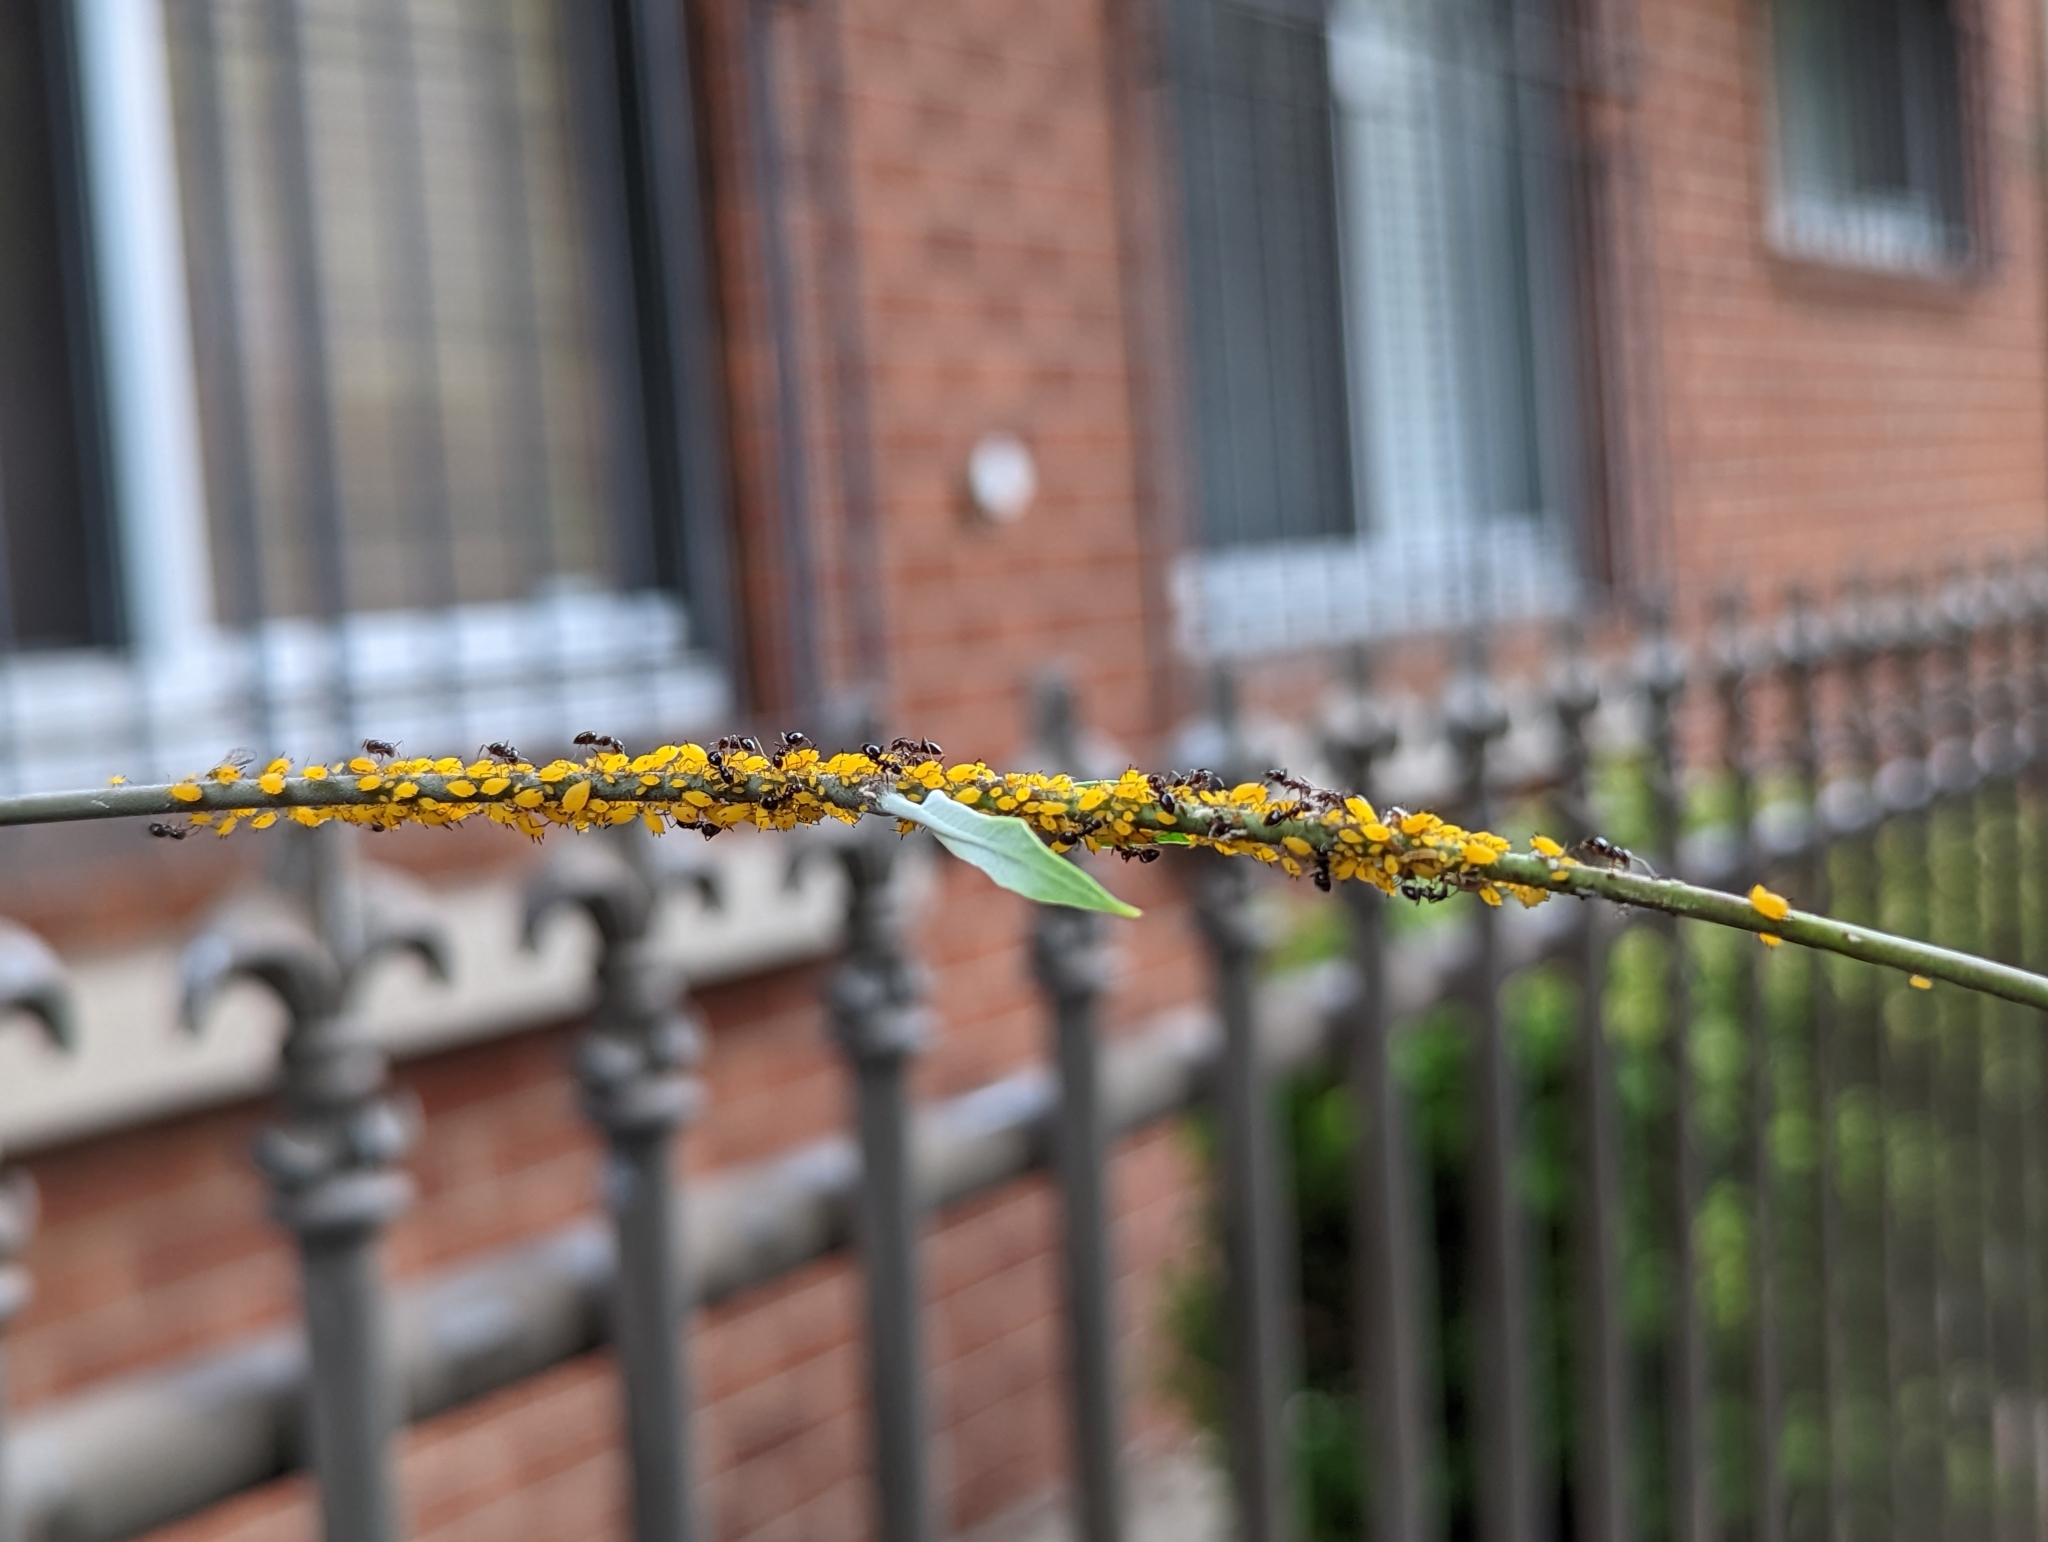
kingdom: Animalia
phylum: Arthropoda
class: Insecta
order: Hemiptera
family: Aphididae
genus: Aphis
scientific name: Aphis nerii
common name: Oleander aphid
